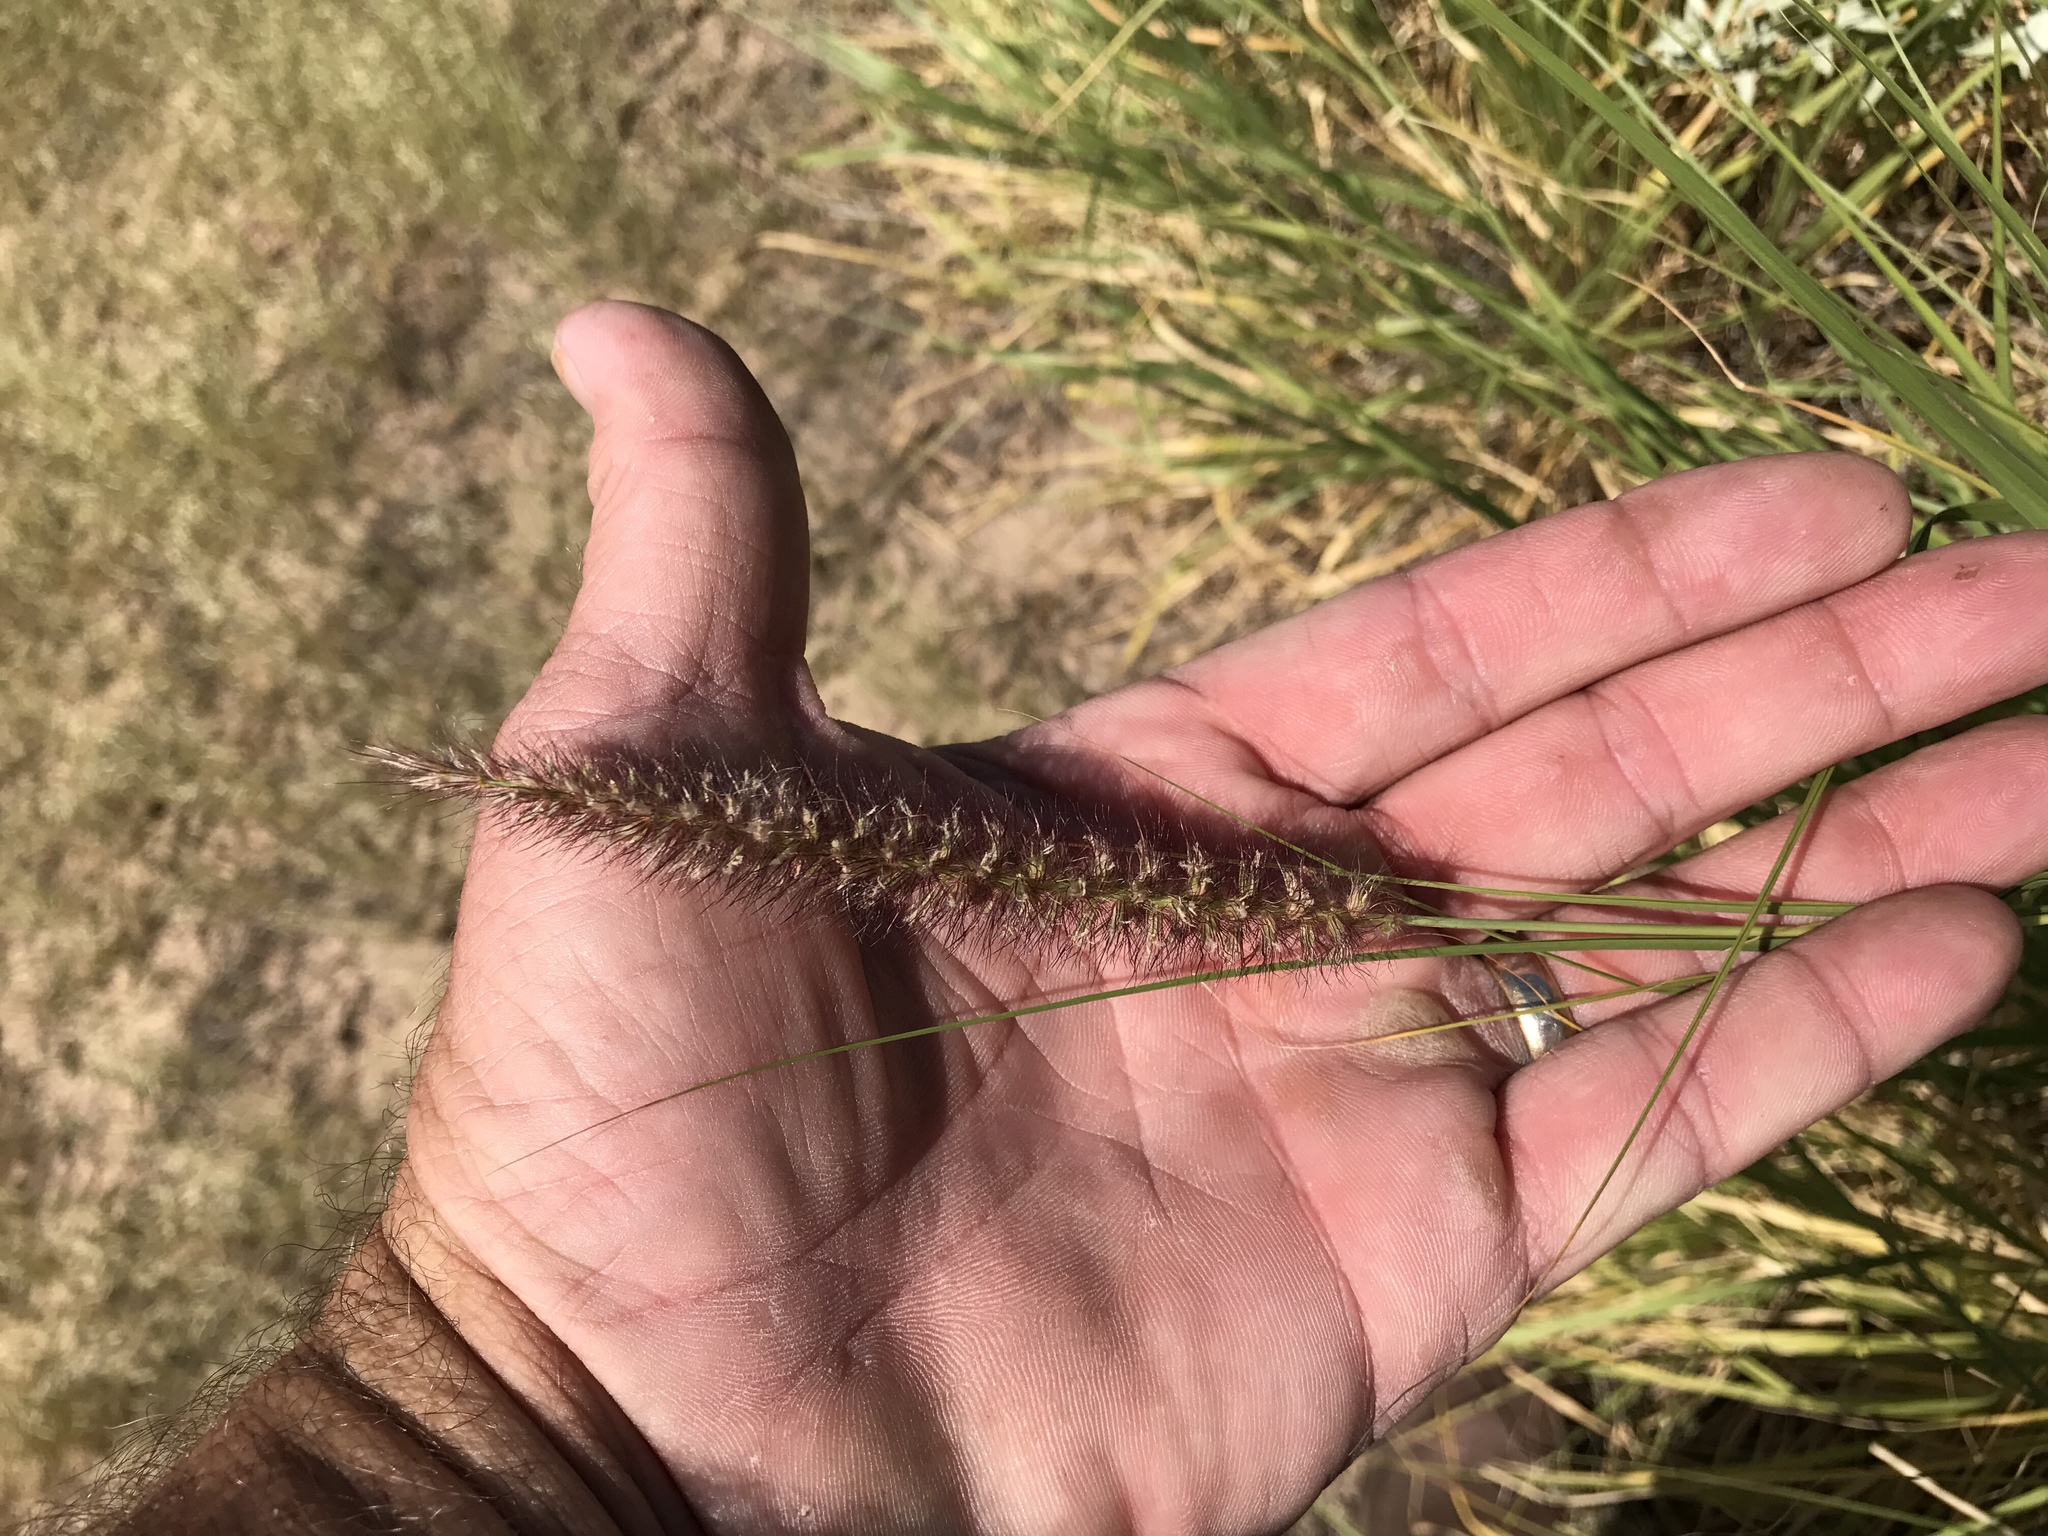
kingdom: Plantae
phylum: Tracheophyta
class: Liliopsida
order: Poales
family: Poaceae
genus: Cenchrus
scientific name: Cenchrus ciliaris
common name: Buffelgrass
